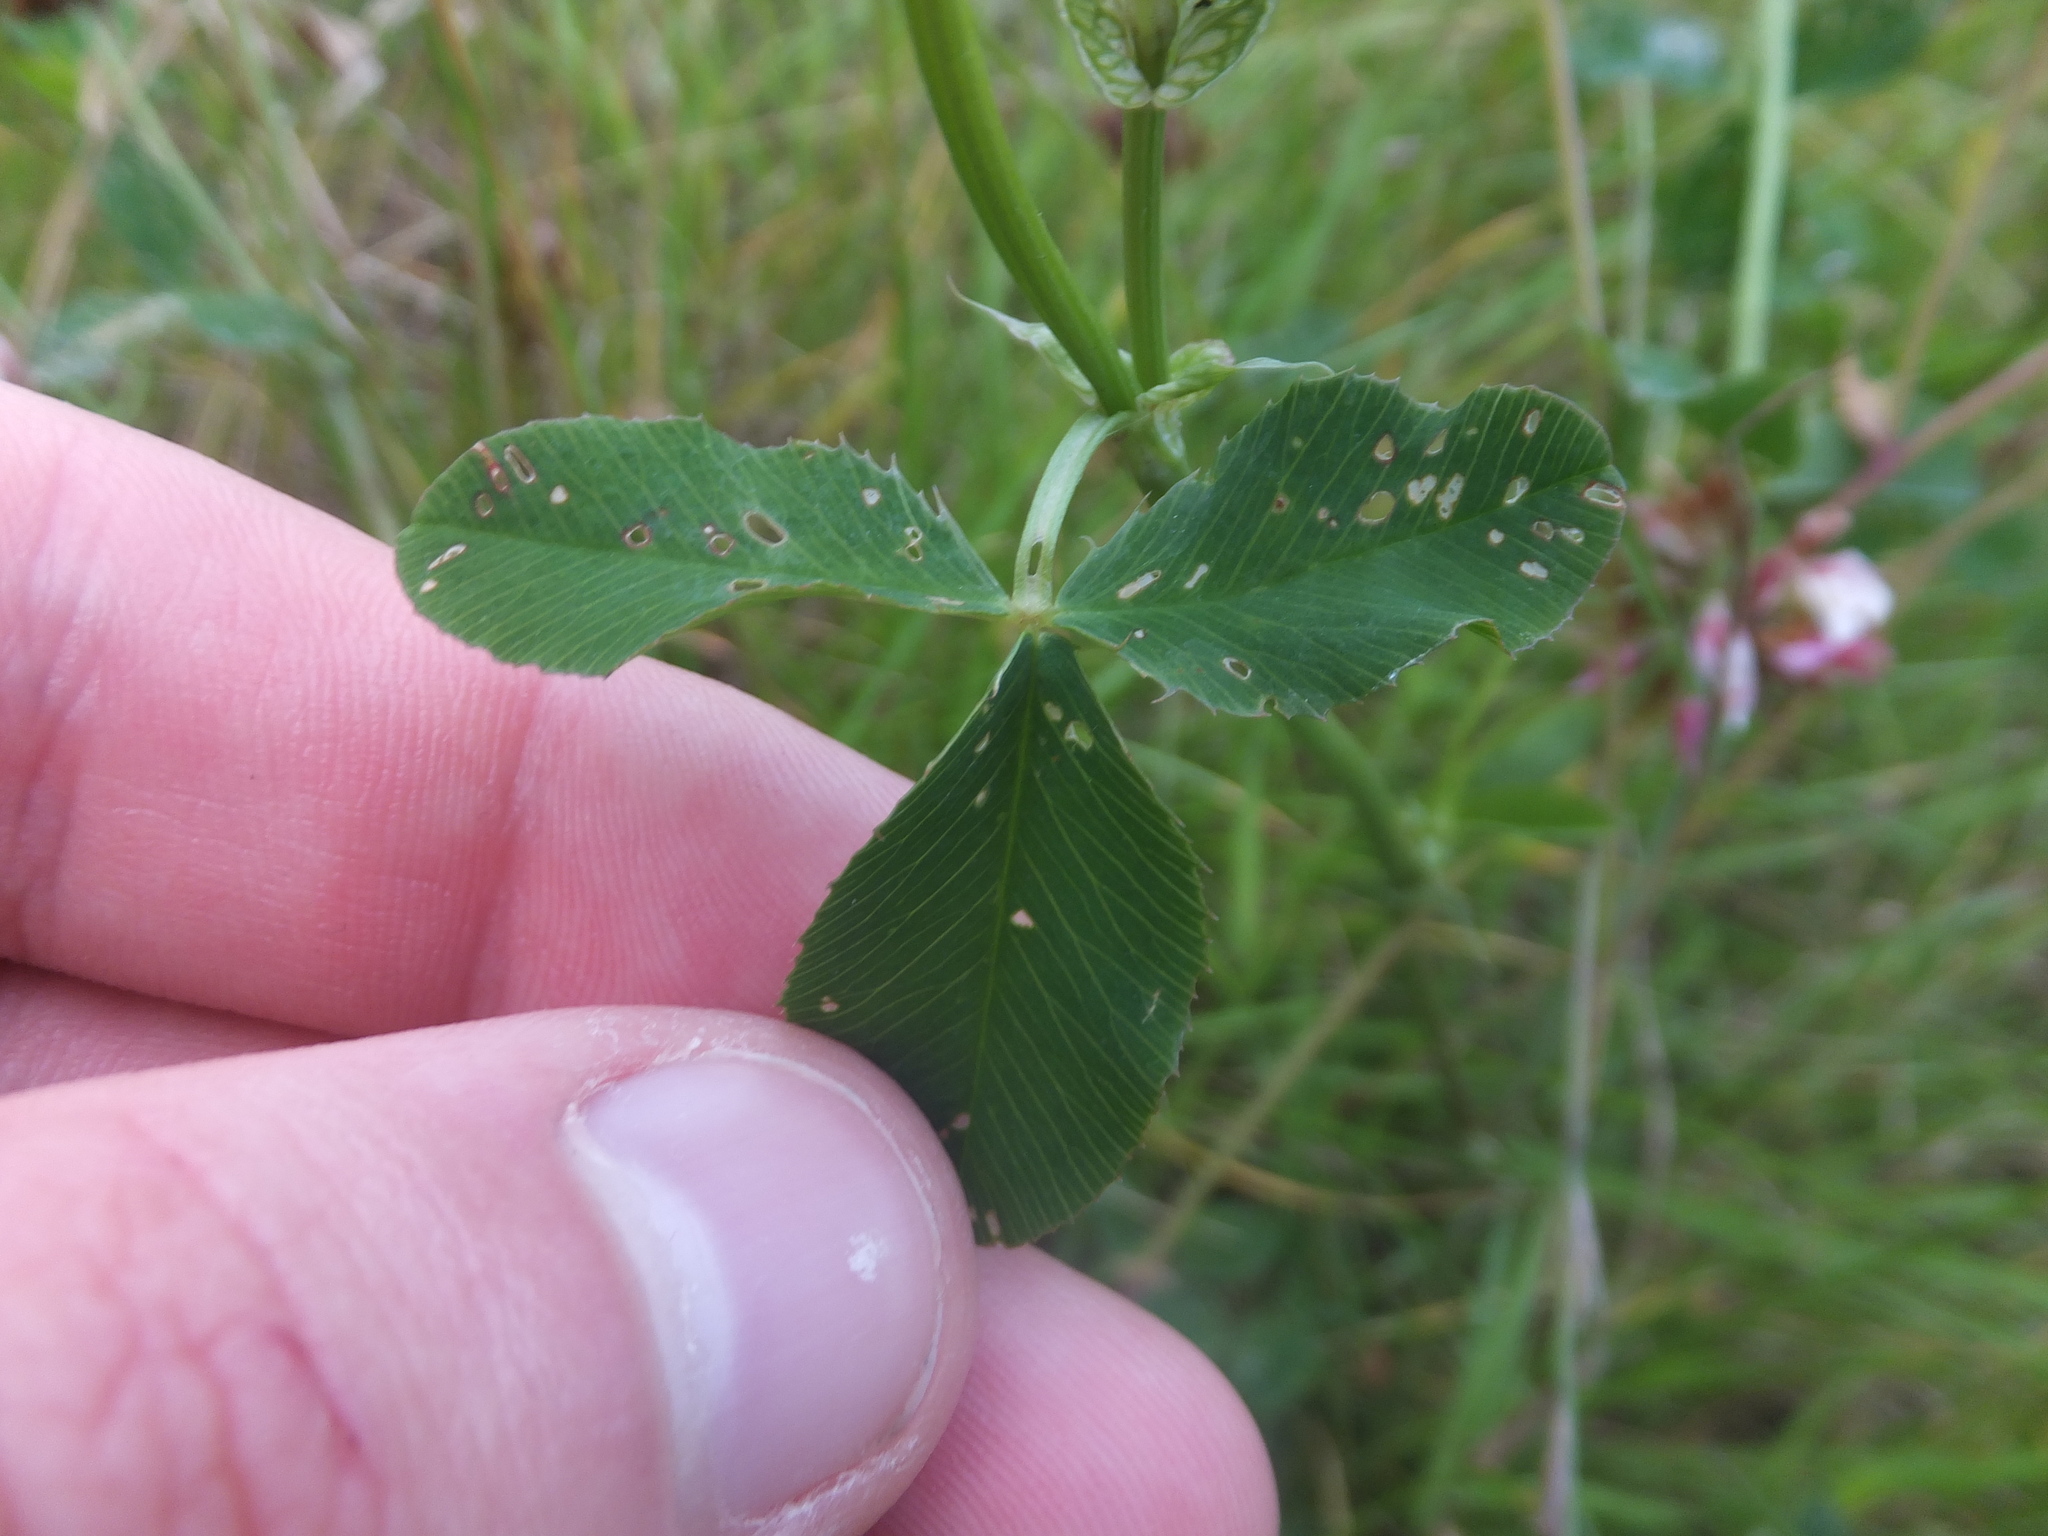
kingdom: Plantae
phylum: Tracheophyta
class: Magnoliopsida
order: Fabales
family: Fabaceae
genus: Trifolium
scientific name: Trifolium hybridum
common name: Alsike clover
